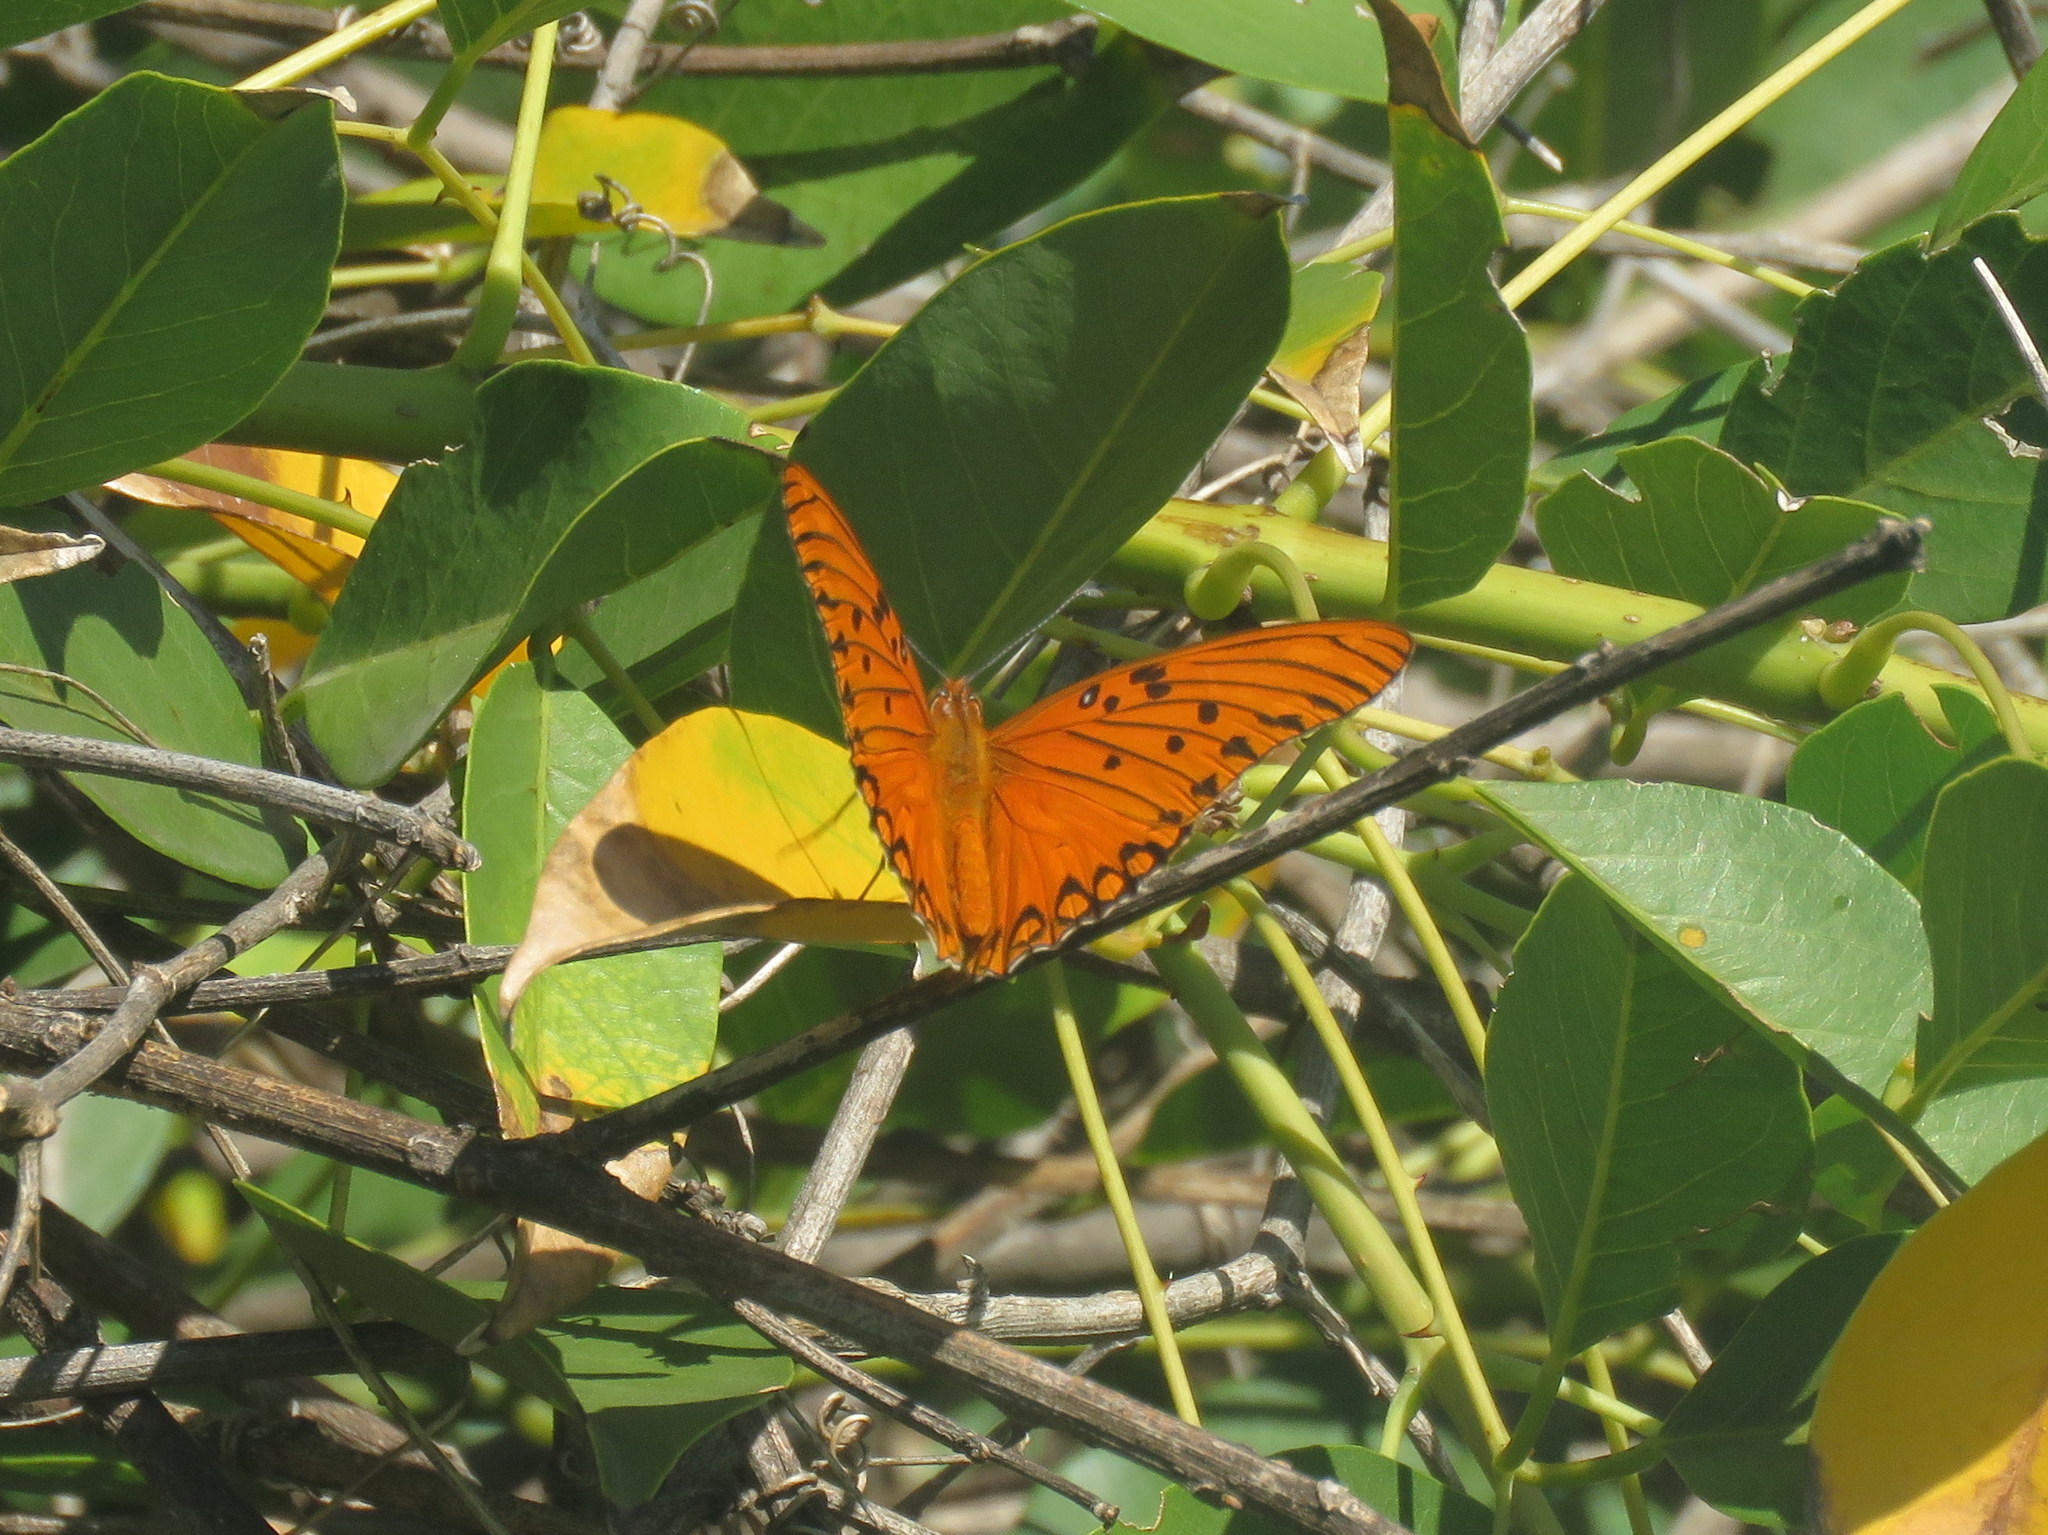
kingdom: Animalia
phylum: Arthropoda
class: Insecta
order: Lepidoptera
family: Nymphalidae
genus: Dione
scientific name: Dione vanillae
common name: Gulf fritillary
